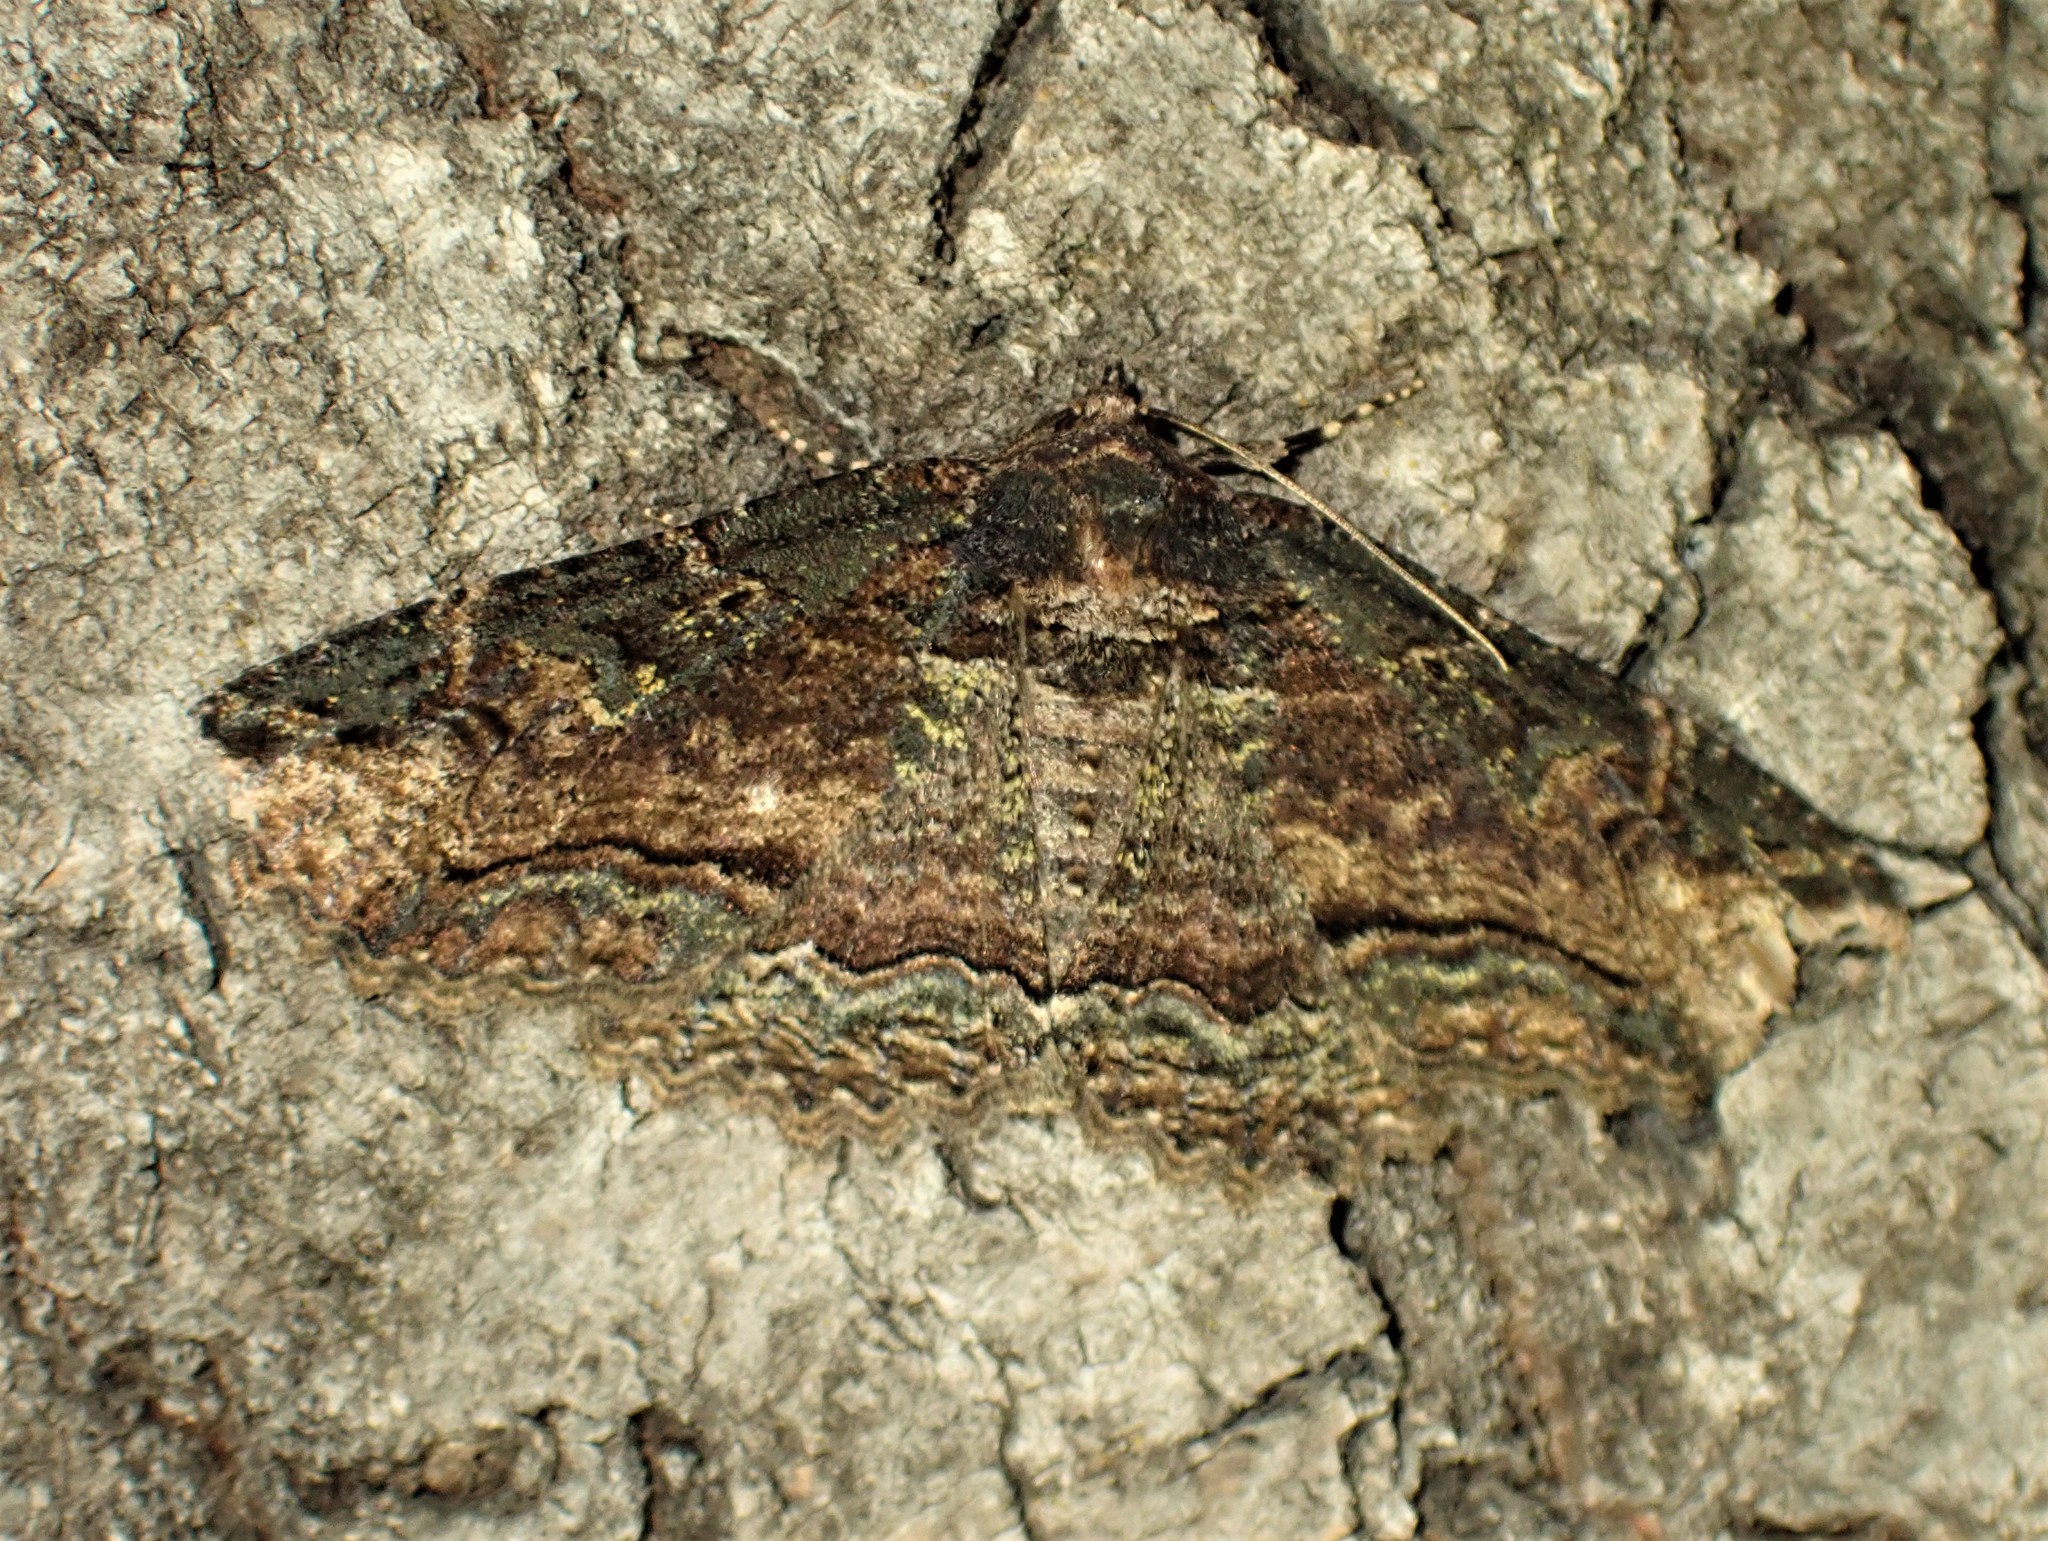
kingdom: Animalia
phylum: Arthropoda
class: Insecta
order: Lepidoptera
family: Erebidae
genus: Zale
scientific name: Zale minerea
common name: Colorful zale moth
